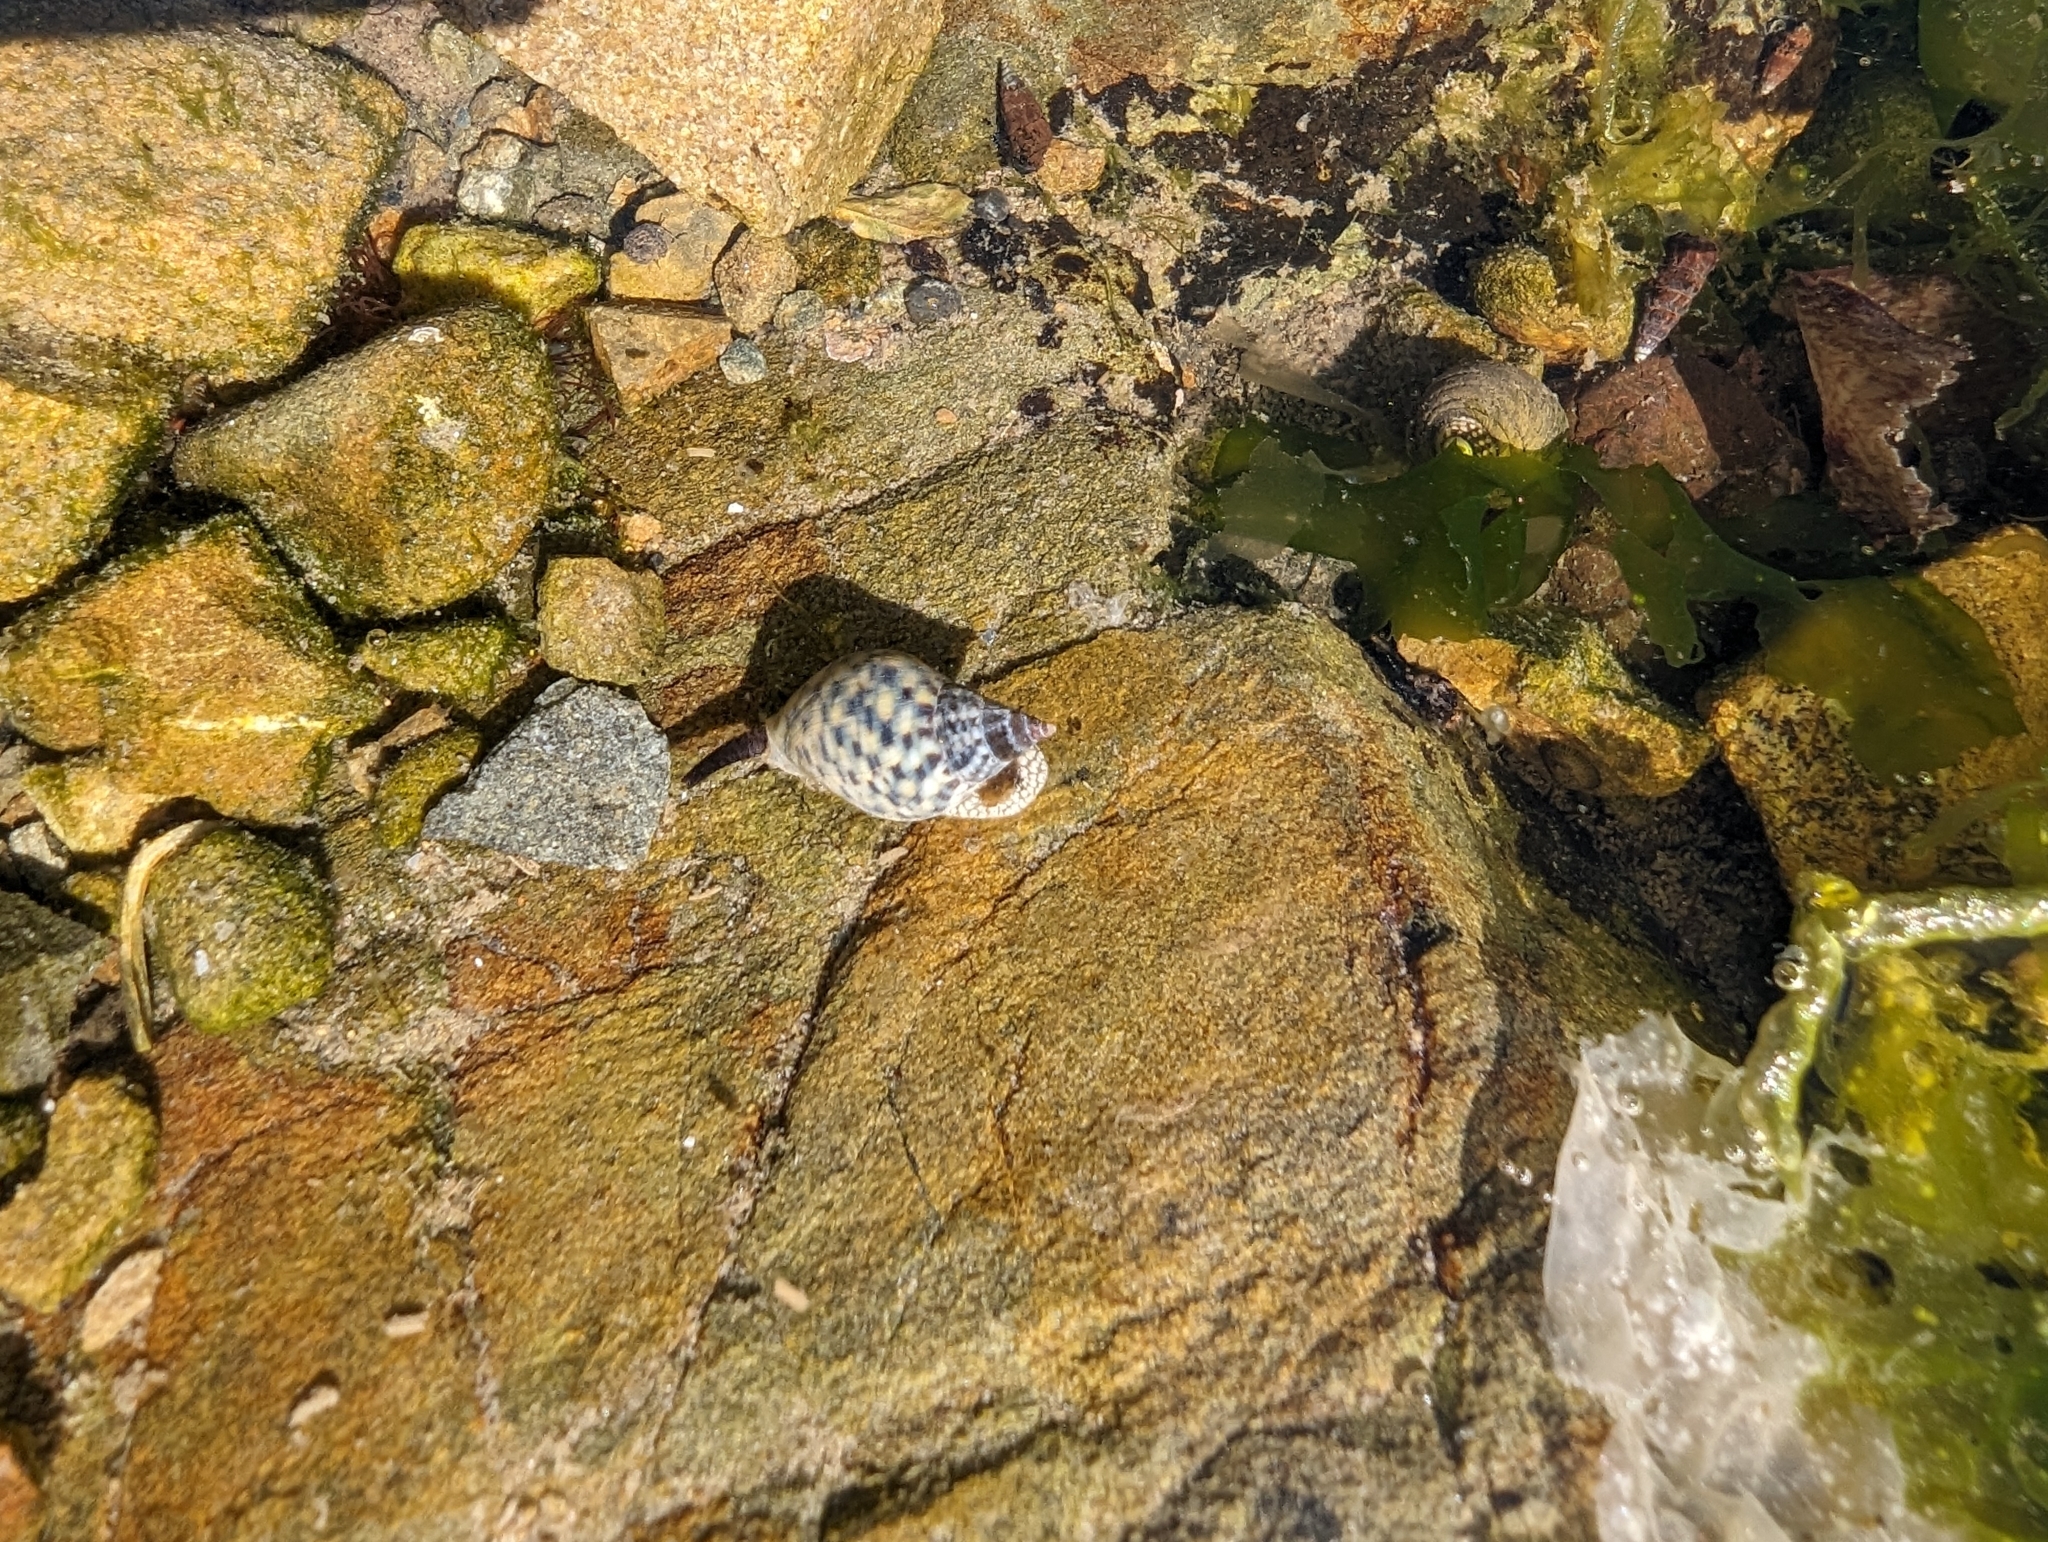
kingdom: Animalia
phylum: Mollusca
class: Gastropoda
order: Neogastropoda
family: Cominellidae
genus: Cominella
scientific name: Cominella maculosa
